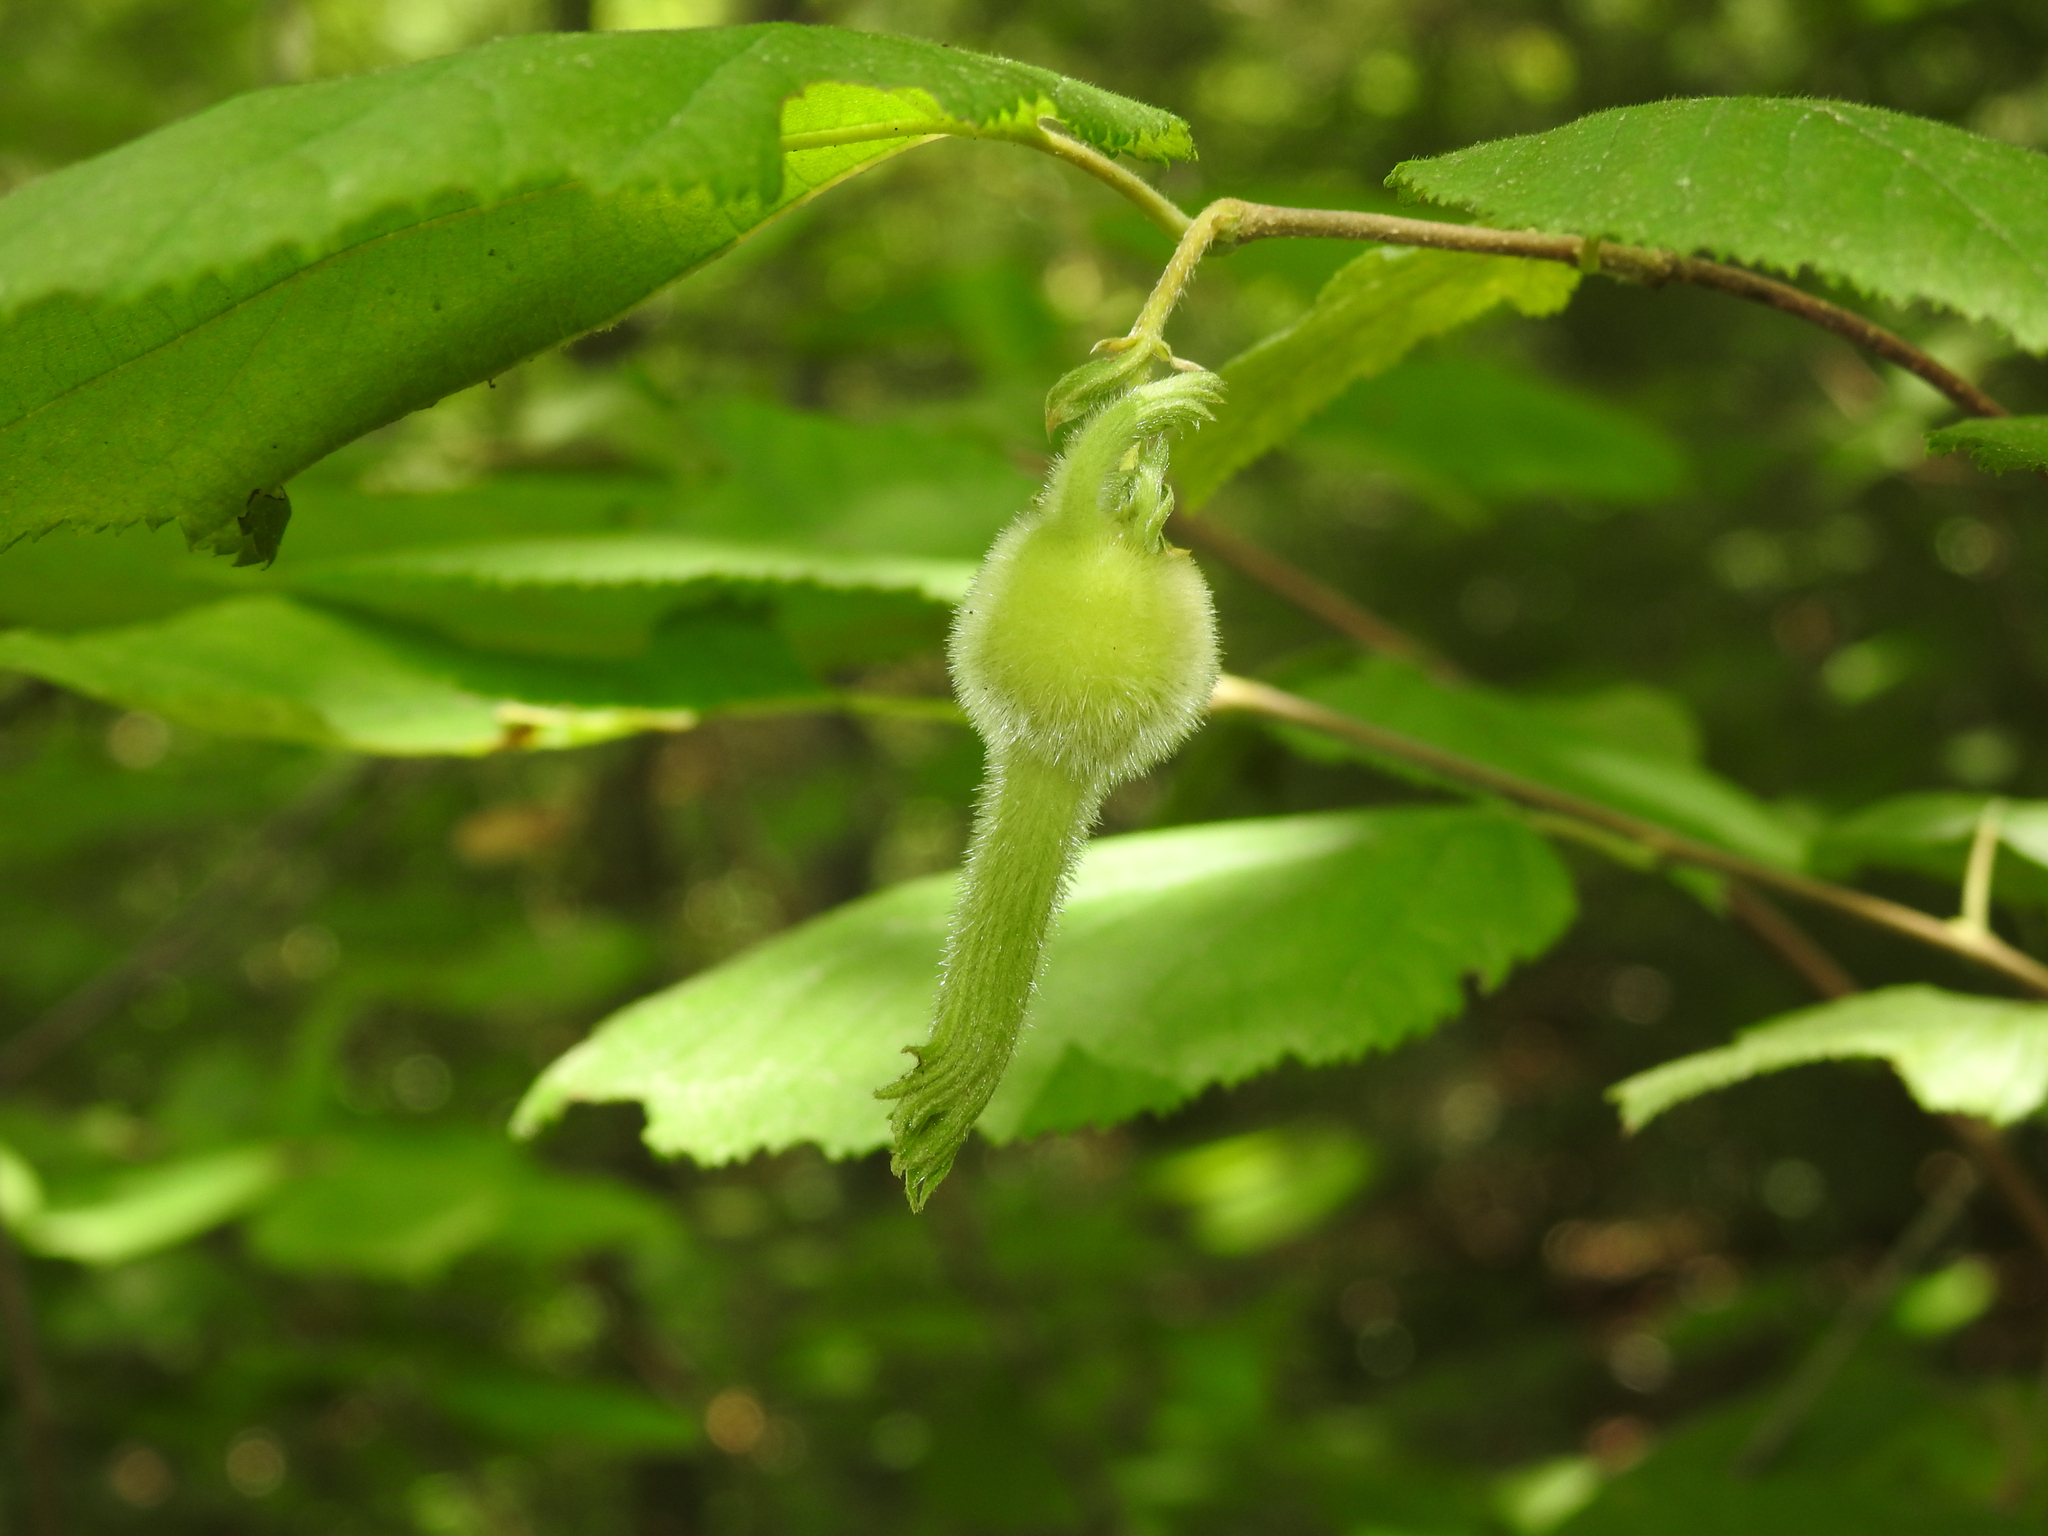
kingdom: Plantae
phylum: Tracheophyta
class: Magnoliopsida
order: Fagales
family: Betulaceae
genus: Corylus
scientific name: Corylus cornuta
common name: Beaked hazel
